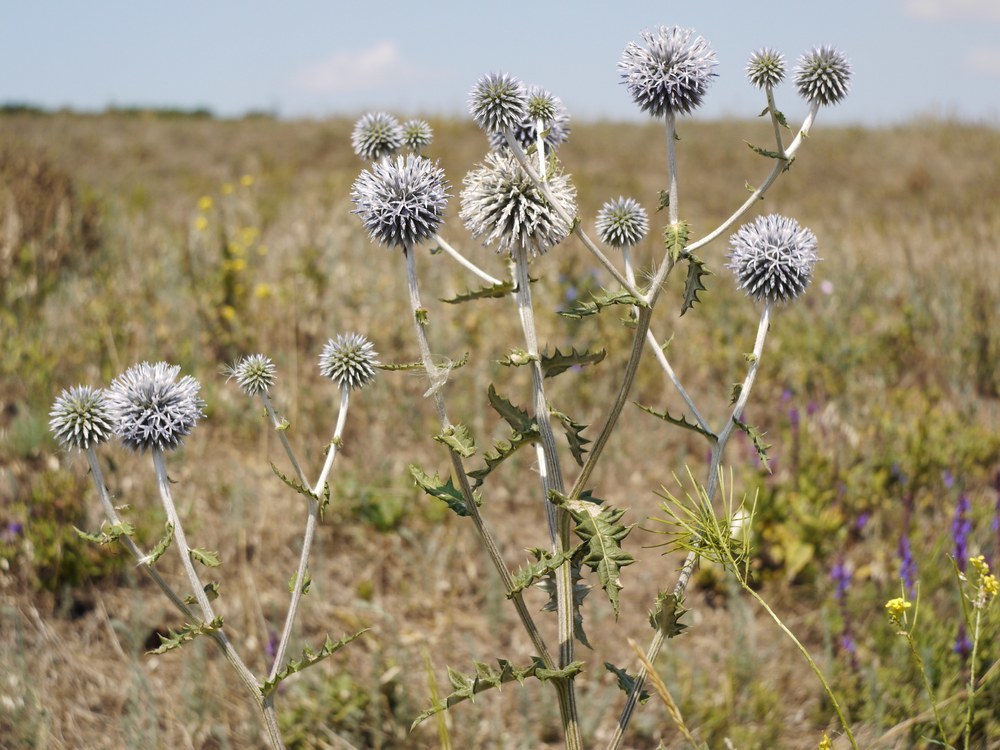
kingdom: Plantae
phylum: Tracheophyta
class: Magnoliopsida
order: Asterales
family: Asteraceae
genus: Echinops
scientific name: Echinops sphaerocephalus
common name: Glandular globe-thistle
